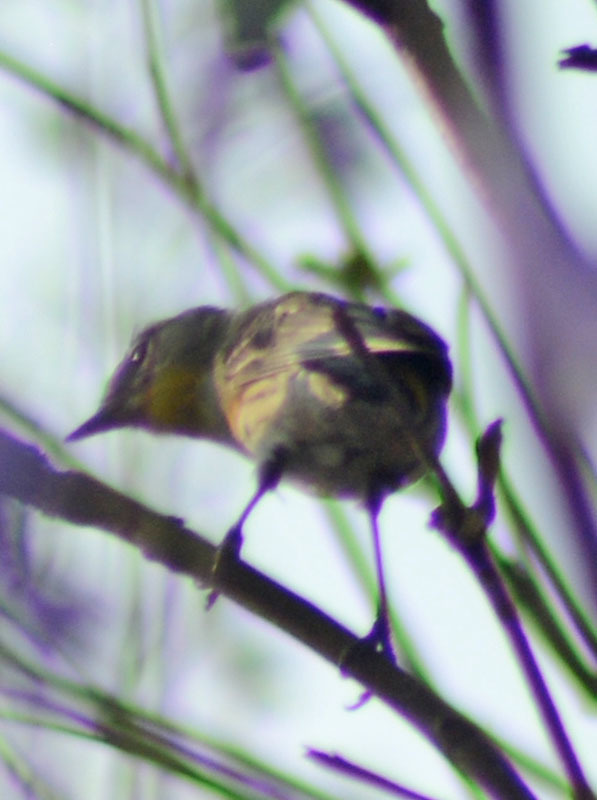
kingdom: Animalia
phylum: Chordata
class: Aves
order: Passeriformes
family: Parulidae
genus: Setophaga
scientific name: Setophaga auduboni
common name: Audubon's warbler
